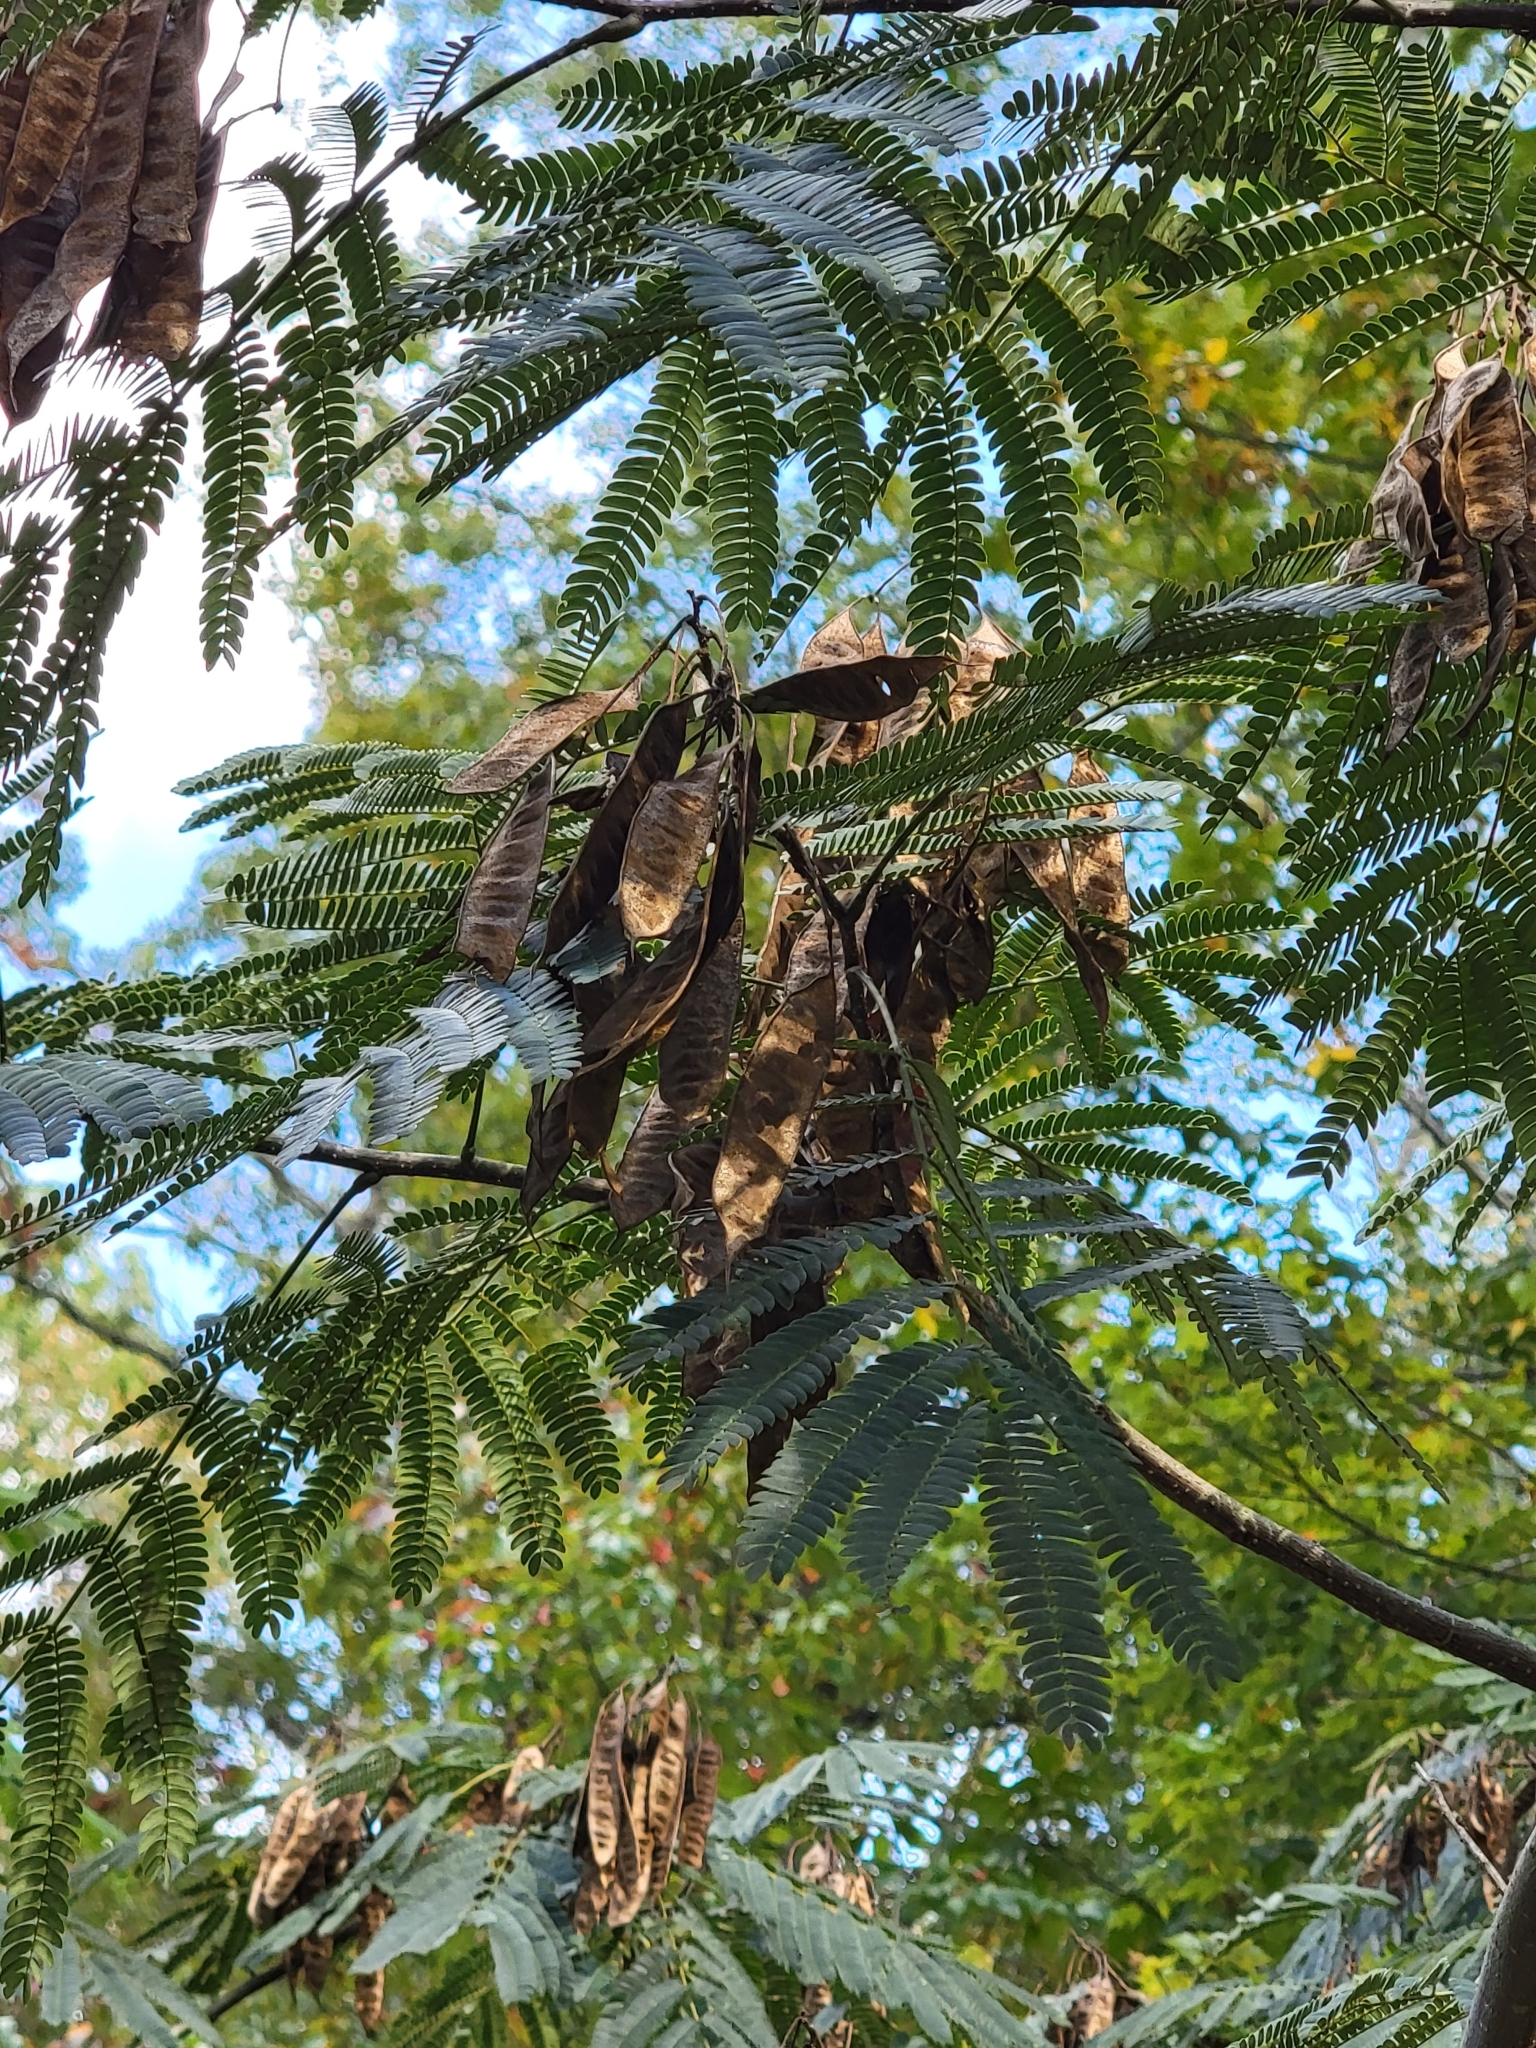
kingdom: Plantae
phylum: Tracheophyta
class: Magnoliopsida
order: Fabales
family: Fabaceae
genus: Albizia
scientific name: Albizia julibrissin
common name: Silktree
